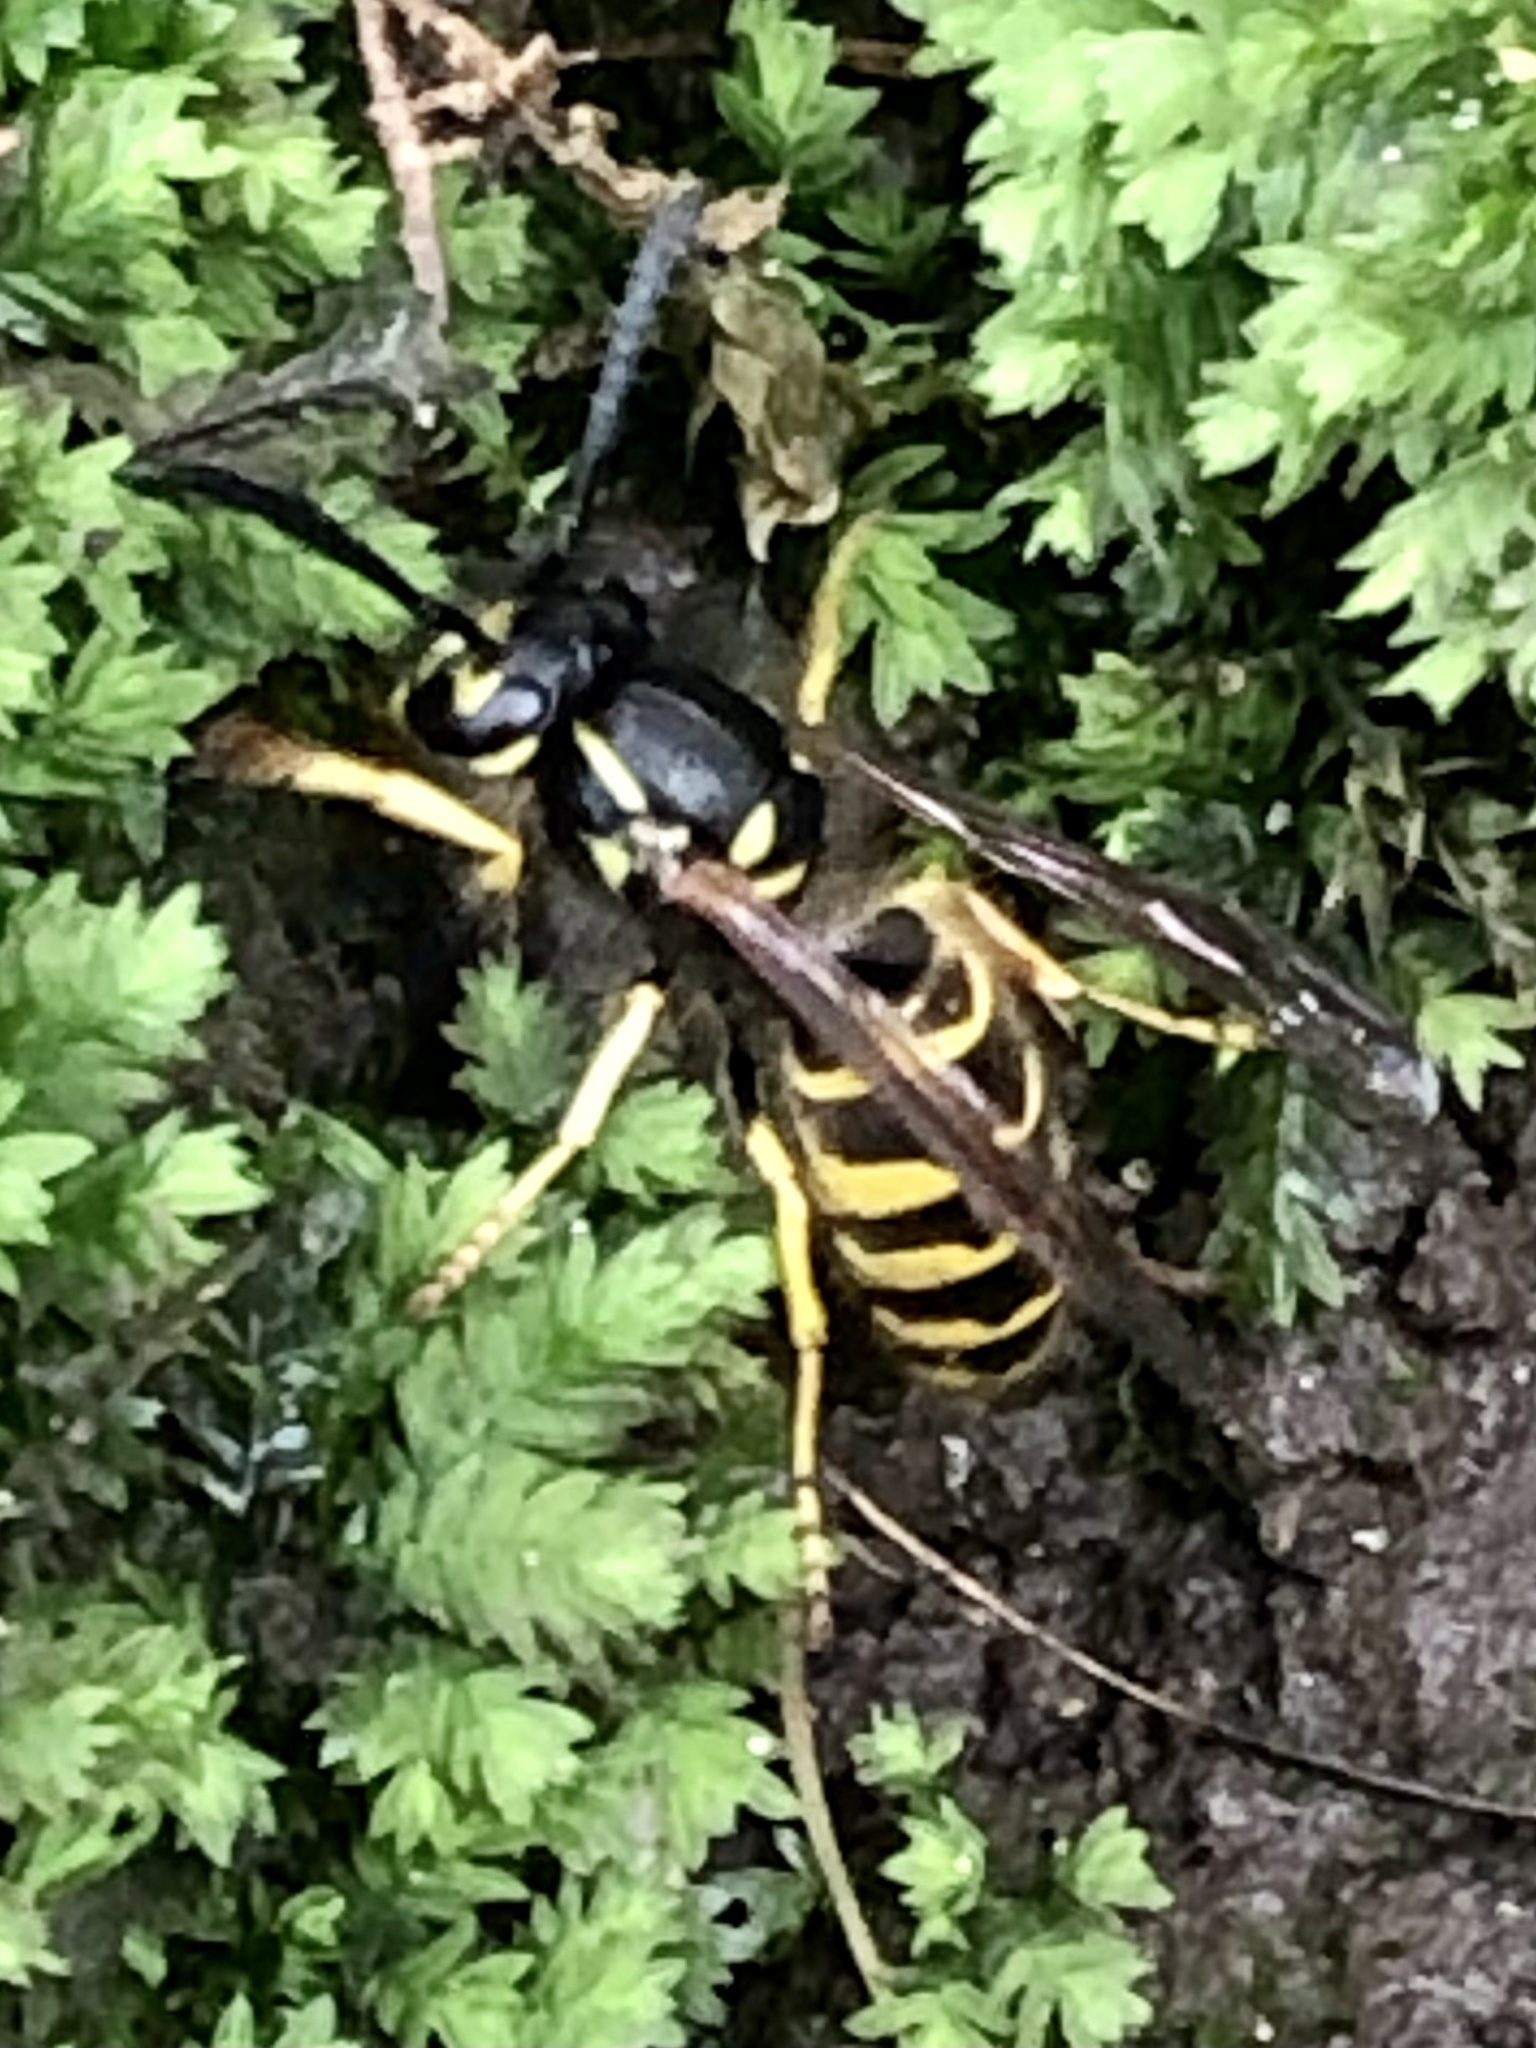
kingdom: Animalia
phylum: Arthropoda
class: Insecta
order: Hymenoptera
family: Vespidae
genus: Vespula
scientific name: Vespula alascensis
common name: Alaska yellowjacket
